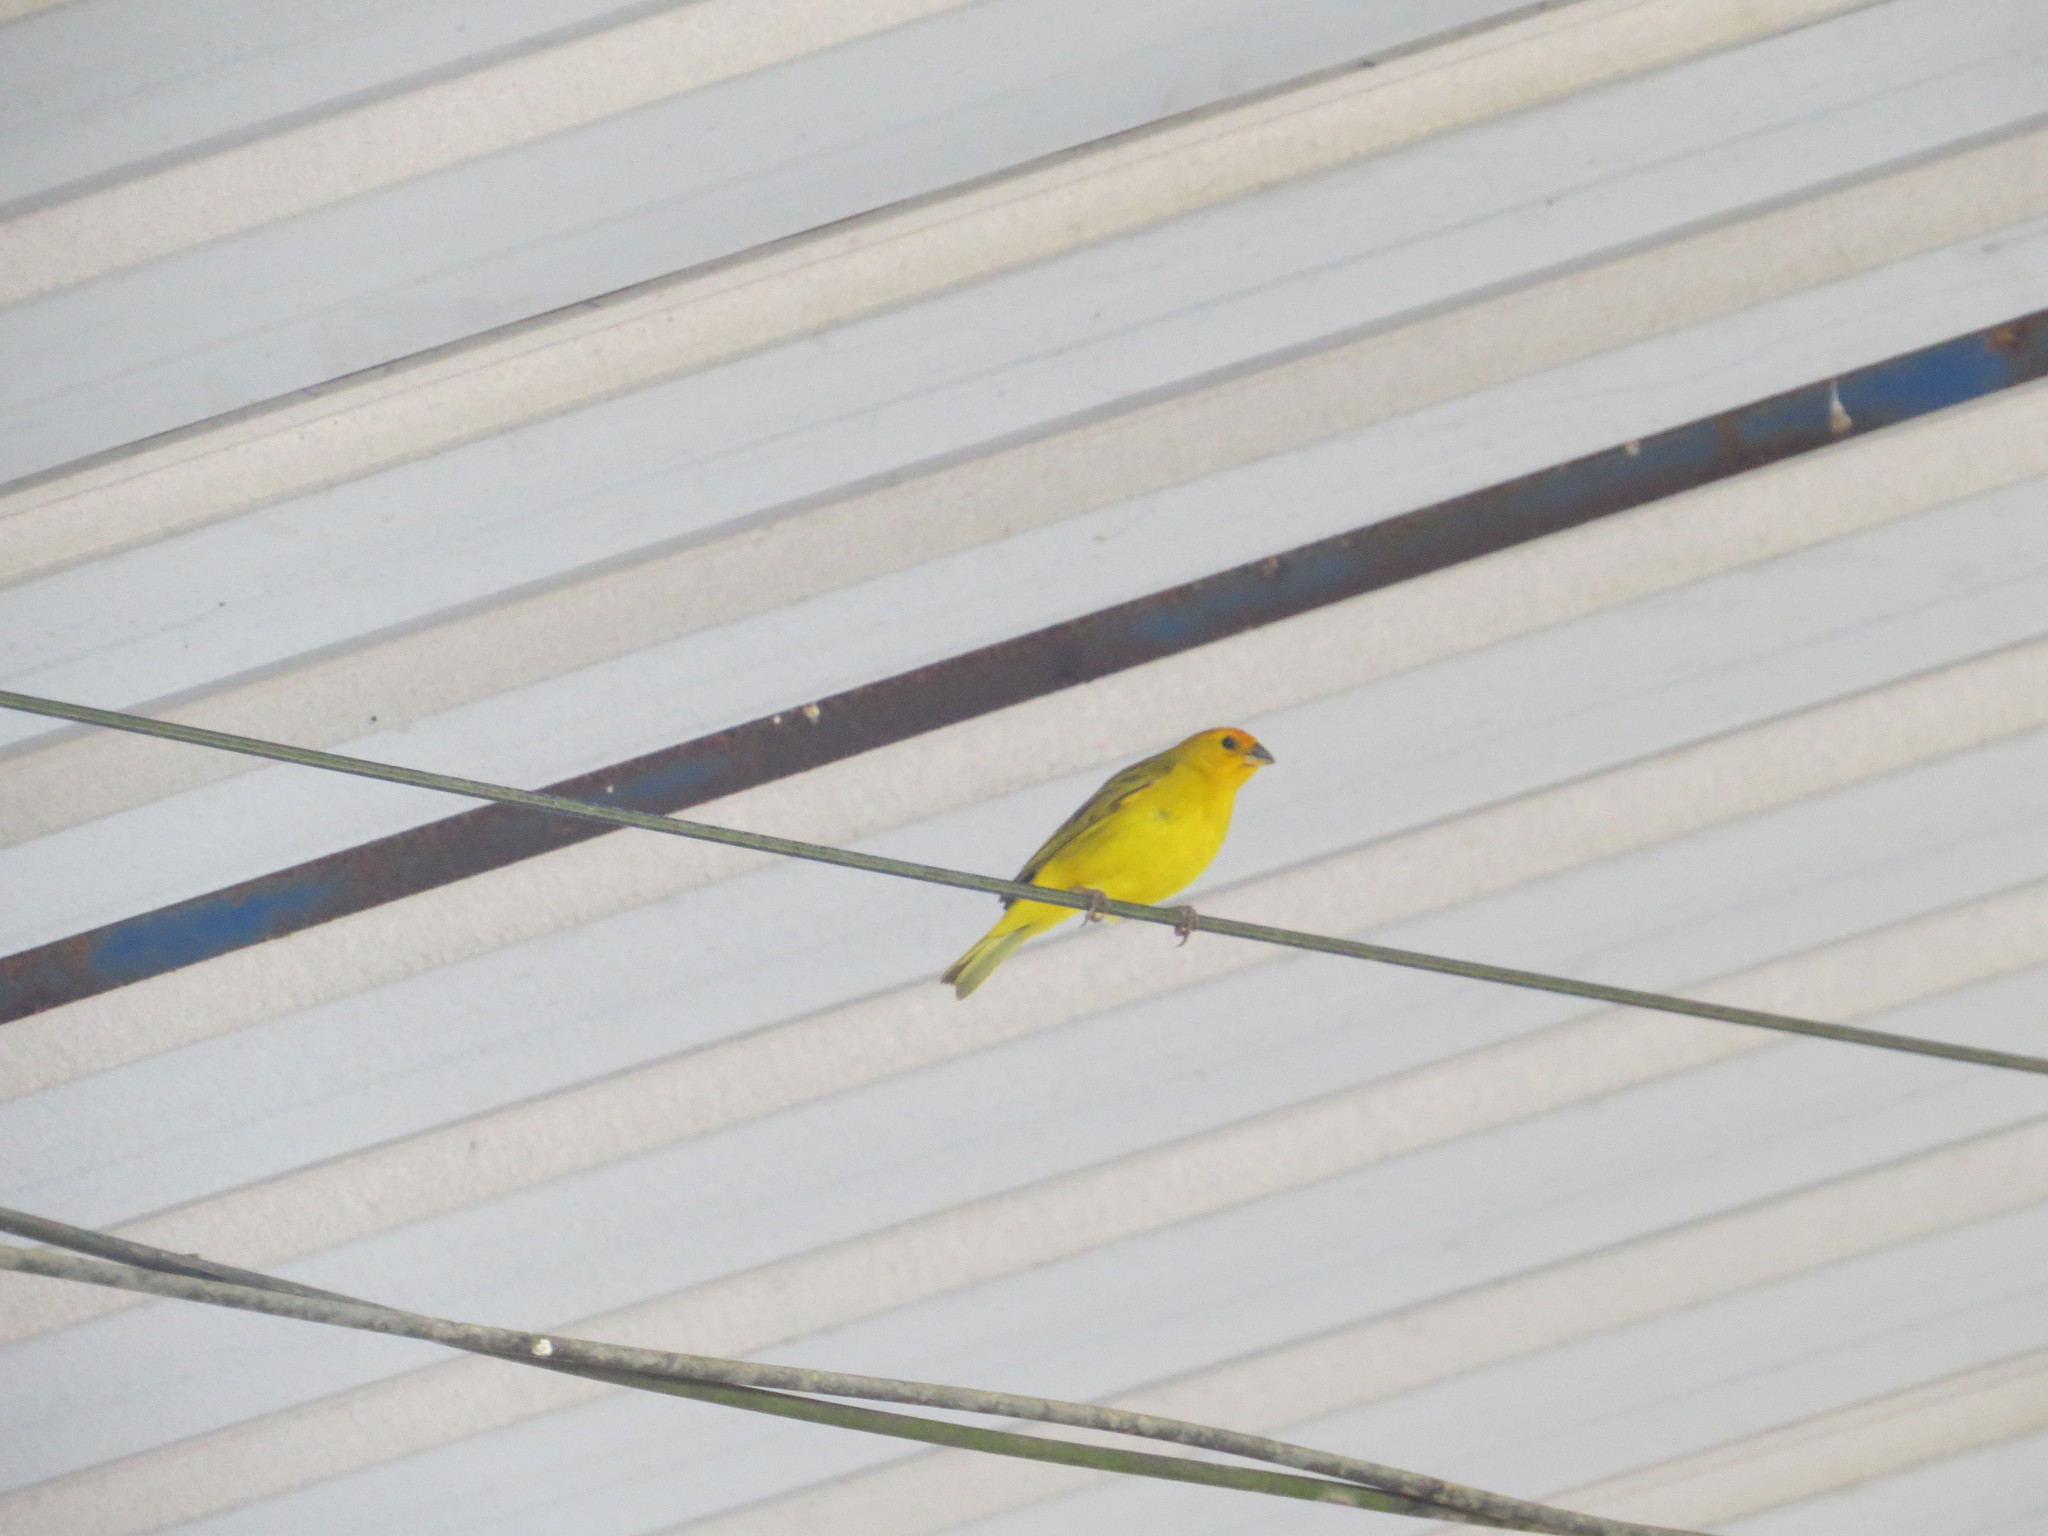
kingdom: Animalia
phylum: Chordata
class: Aves
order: Passeriformes
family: Thraupidae
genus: Sicalis
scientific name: Sicalis flaveola
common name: Saffron finch
